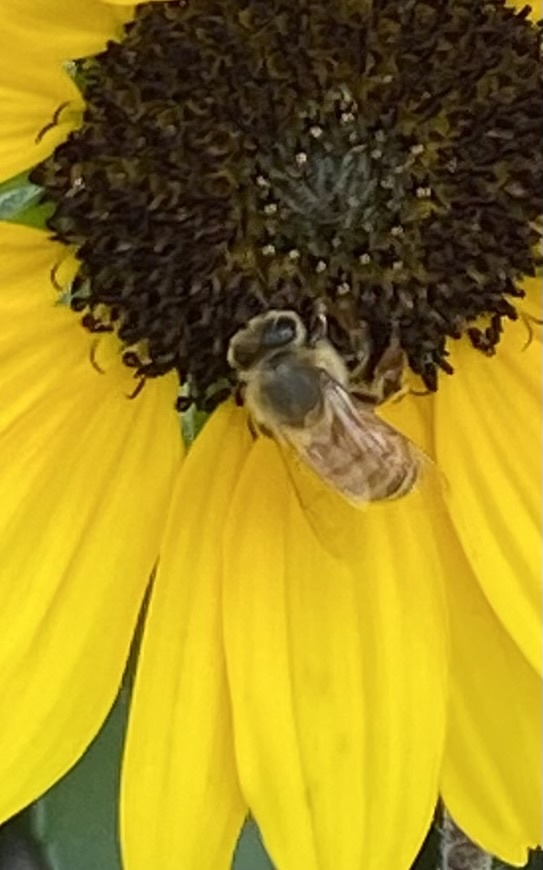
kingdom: Animalia
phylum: Arthropoda
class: Insecta
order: Hymenoptera
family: Apidae
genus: Apis
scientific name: Apis mellifera
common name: Honey bee
